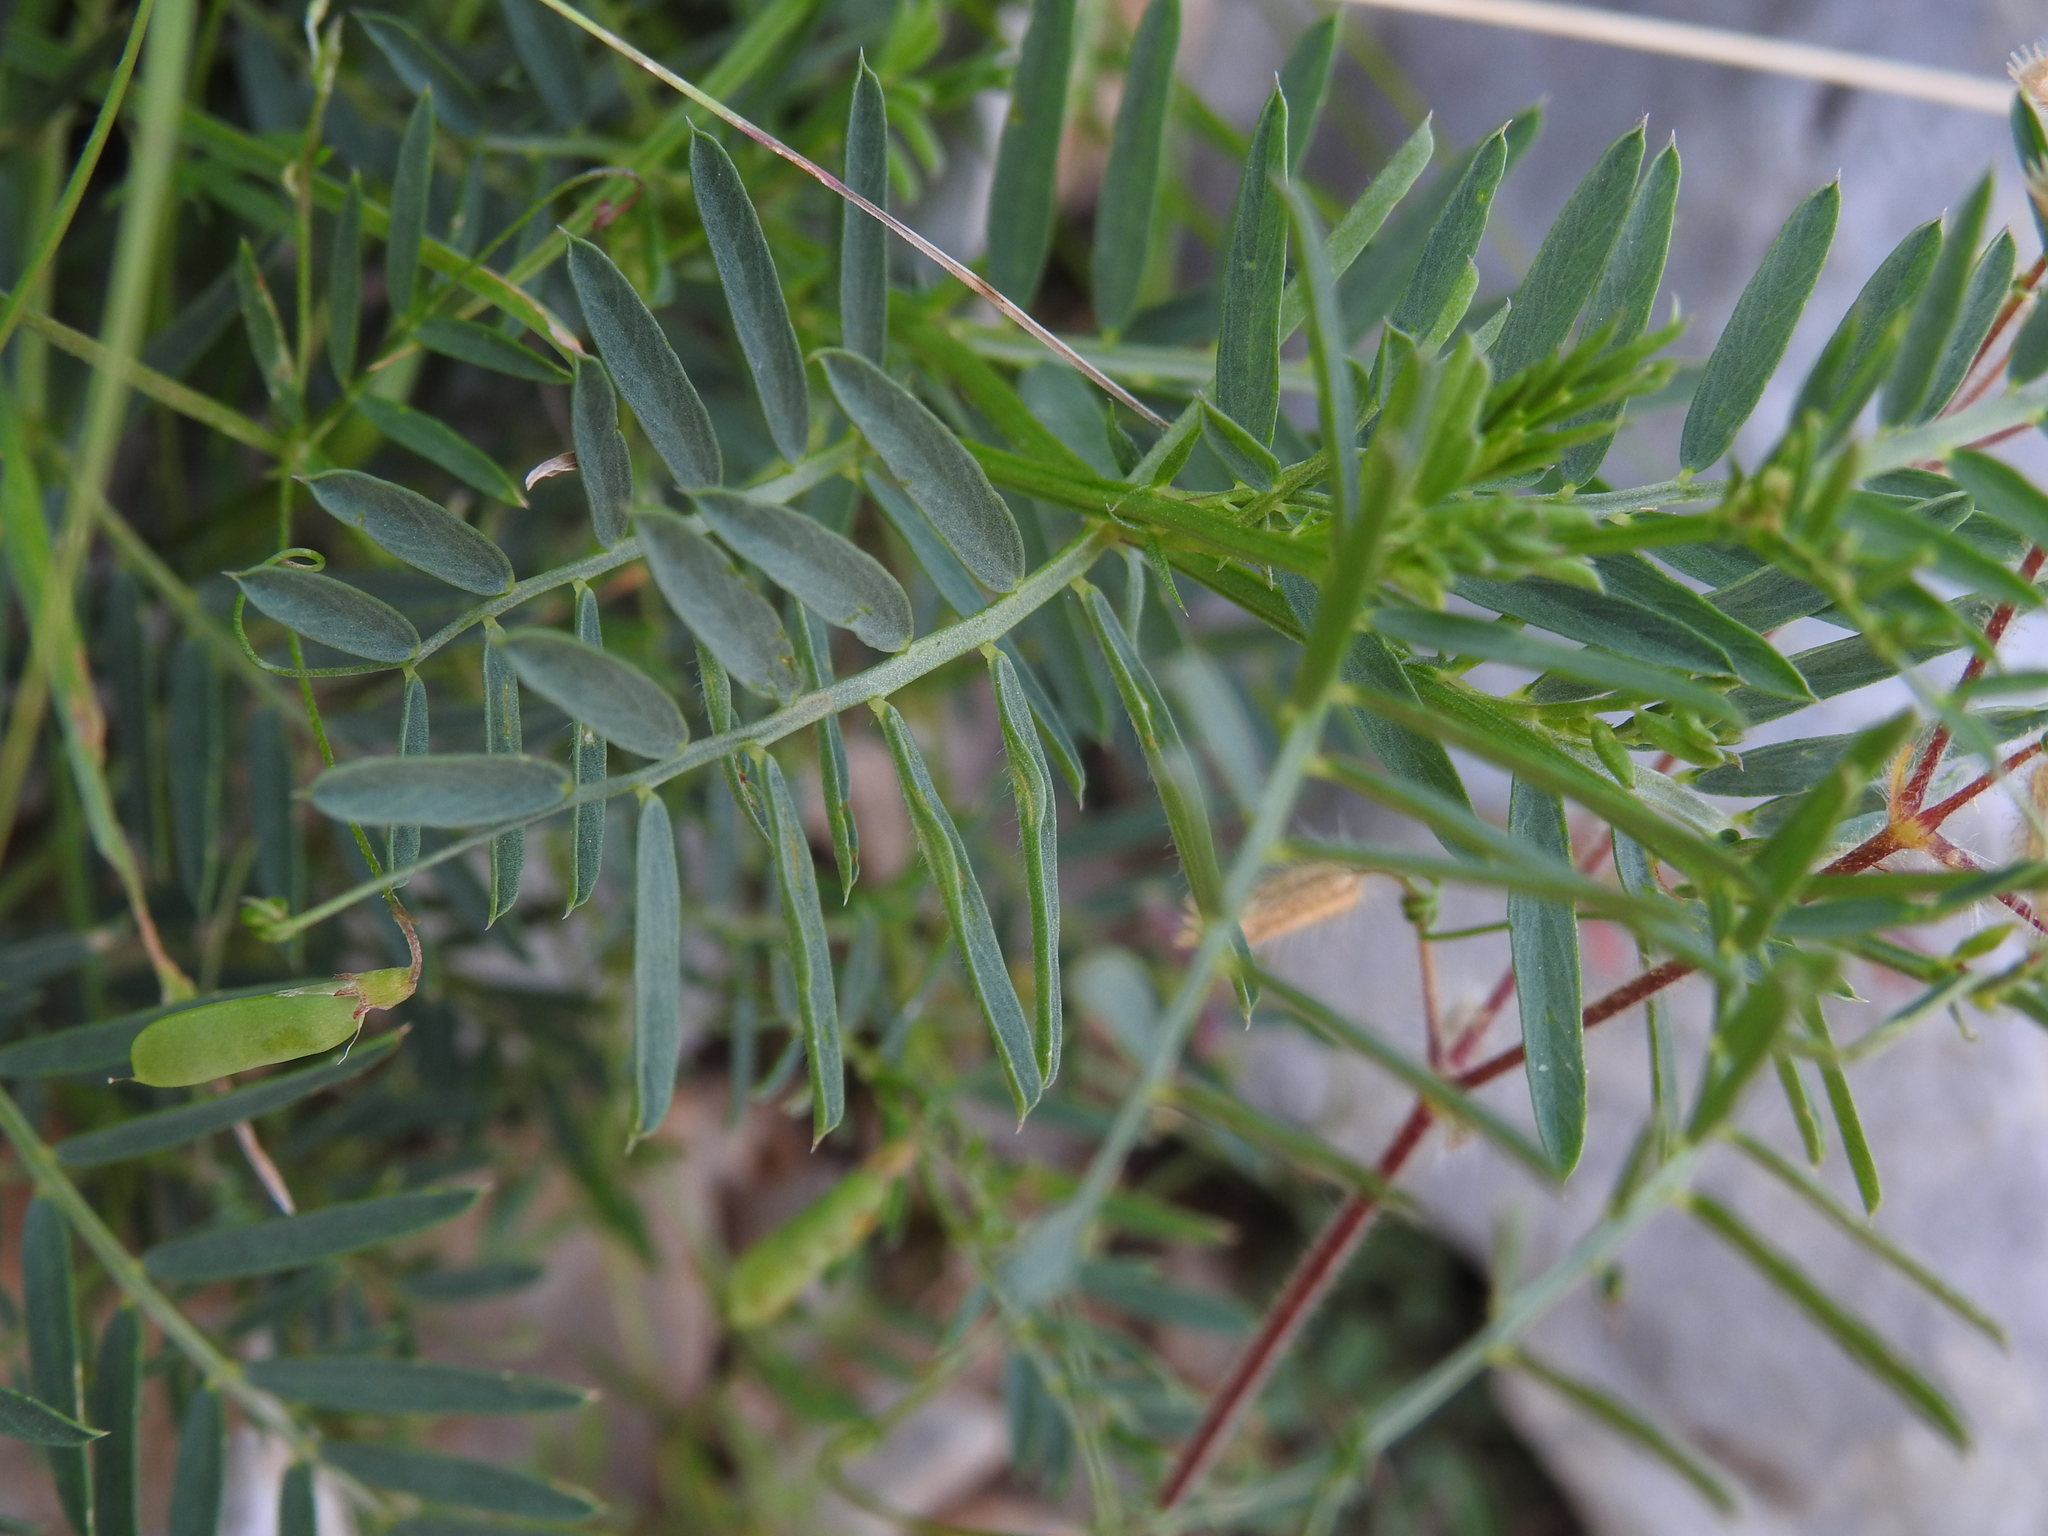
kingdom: Plantae
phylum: Tracheophyta
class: Magnoliopsida
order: Fabales
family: Fabaceae
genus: Vicia
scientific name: Vicia onobrychioides
